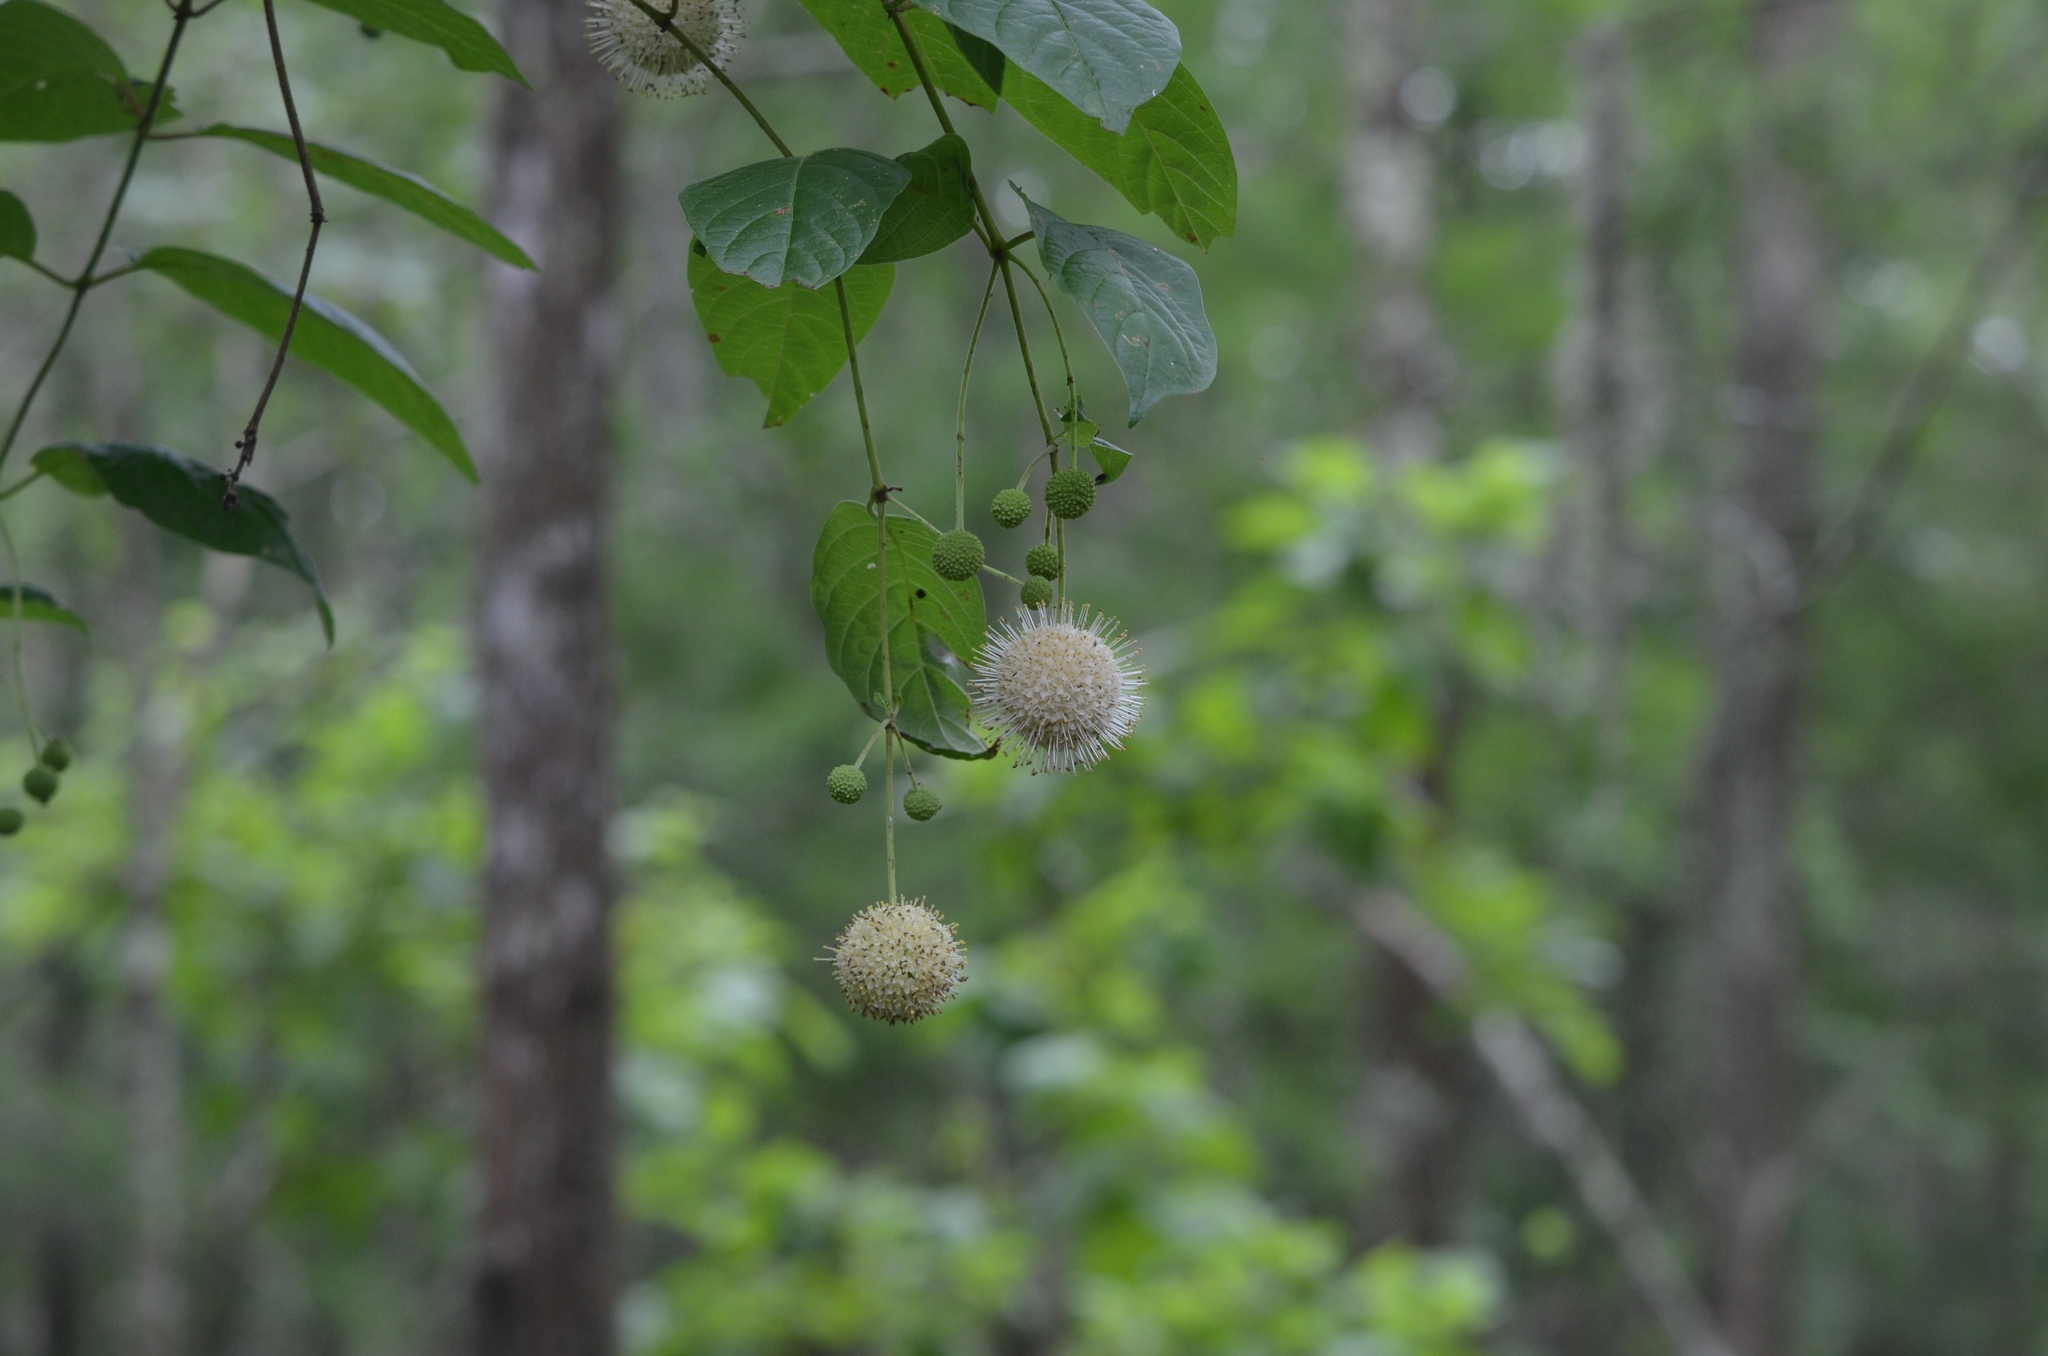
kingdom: Plantae
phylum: Tracheophyta
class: Magnoliopsida
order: Gentianales
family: Rubiaceae
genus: Cephalanthus
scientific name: Cephalanthus occidentalis
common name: Button-willow
